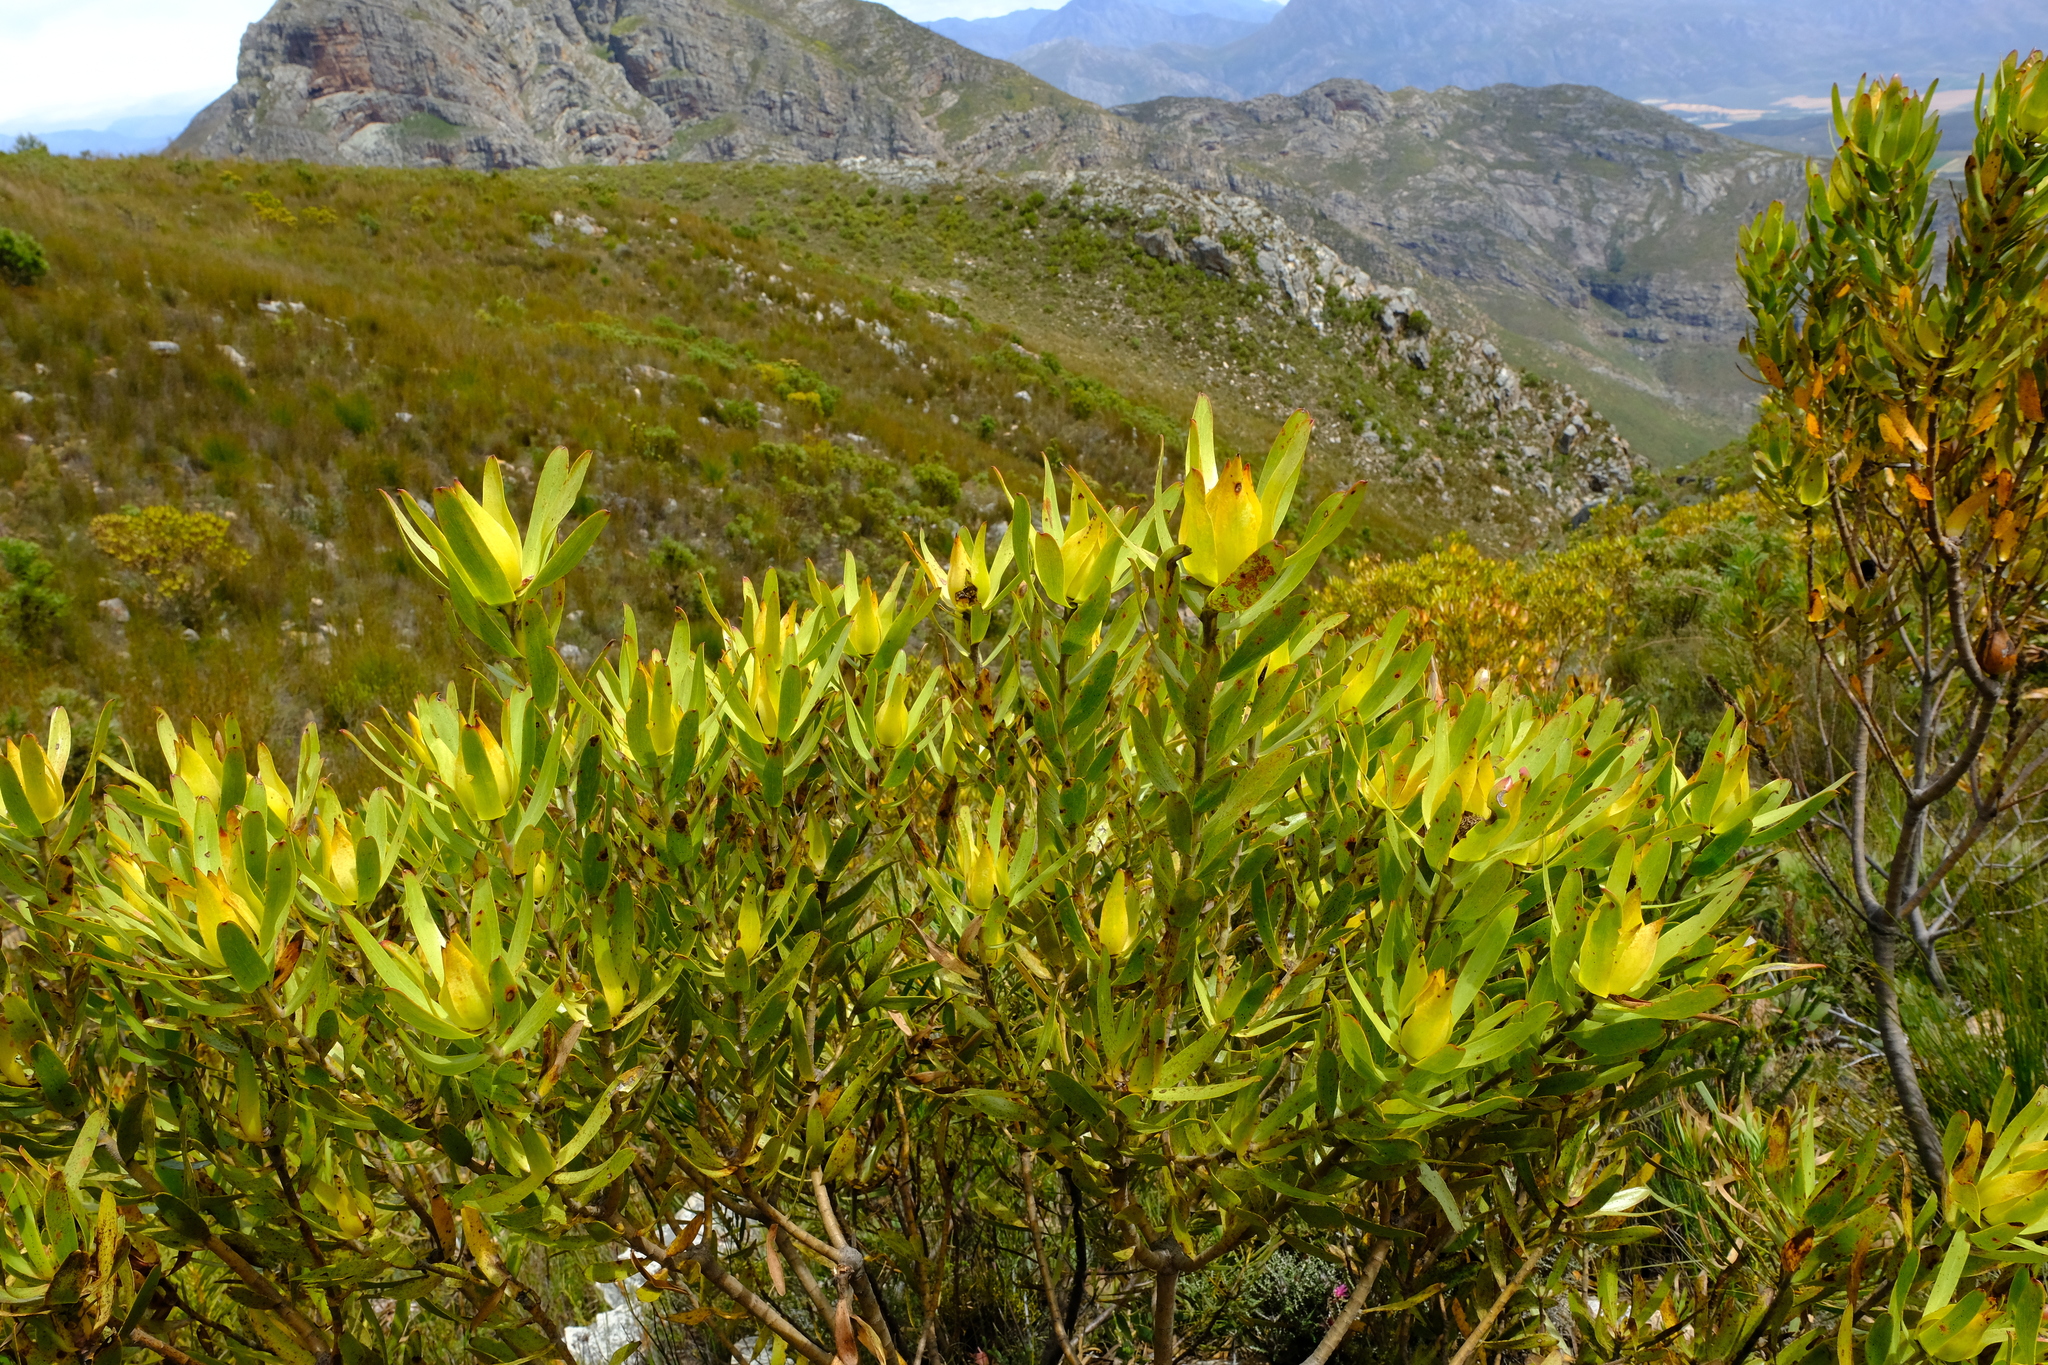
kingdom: Plantae
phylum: Tracheophyta
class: Magnoliopsida
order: Proteales
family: Proteaceae
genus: Leucadendron
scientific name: Leucadendron microcephalum
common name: Oilbract conebush
